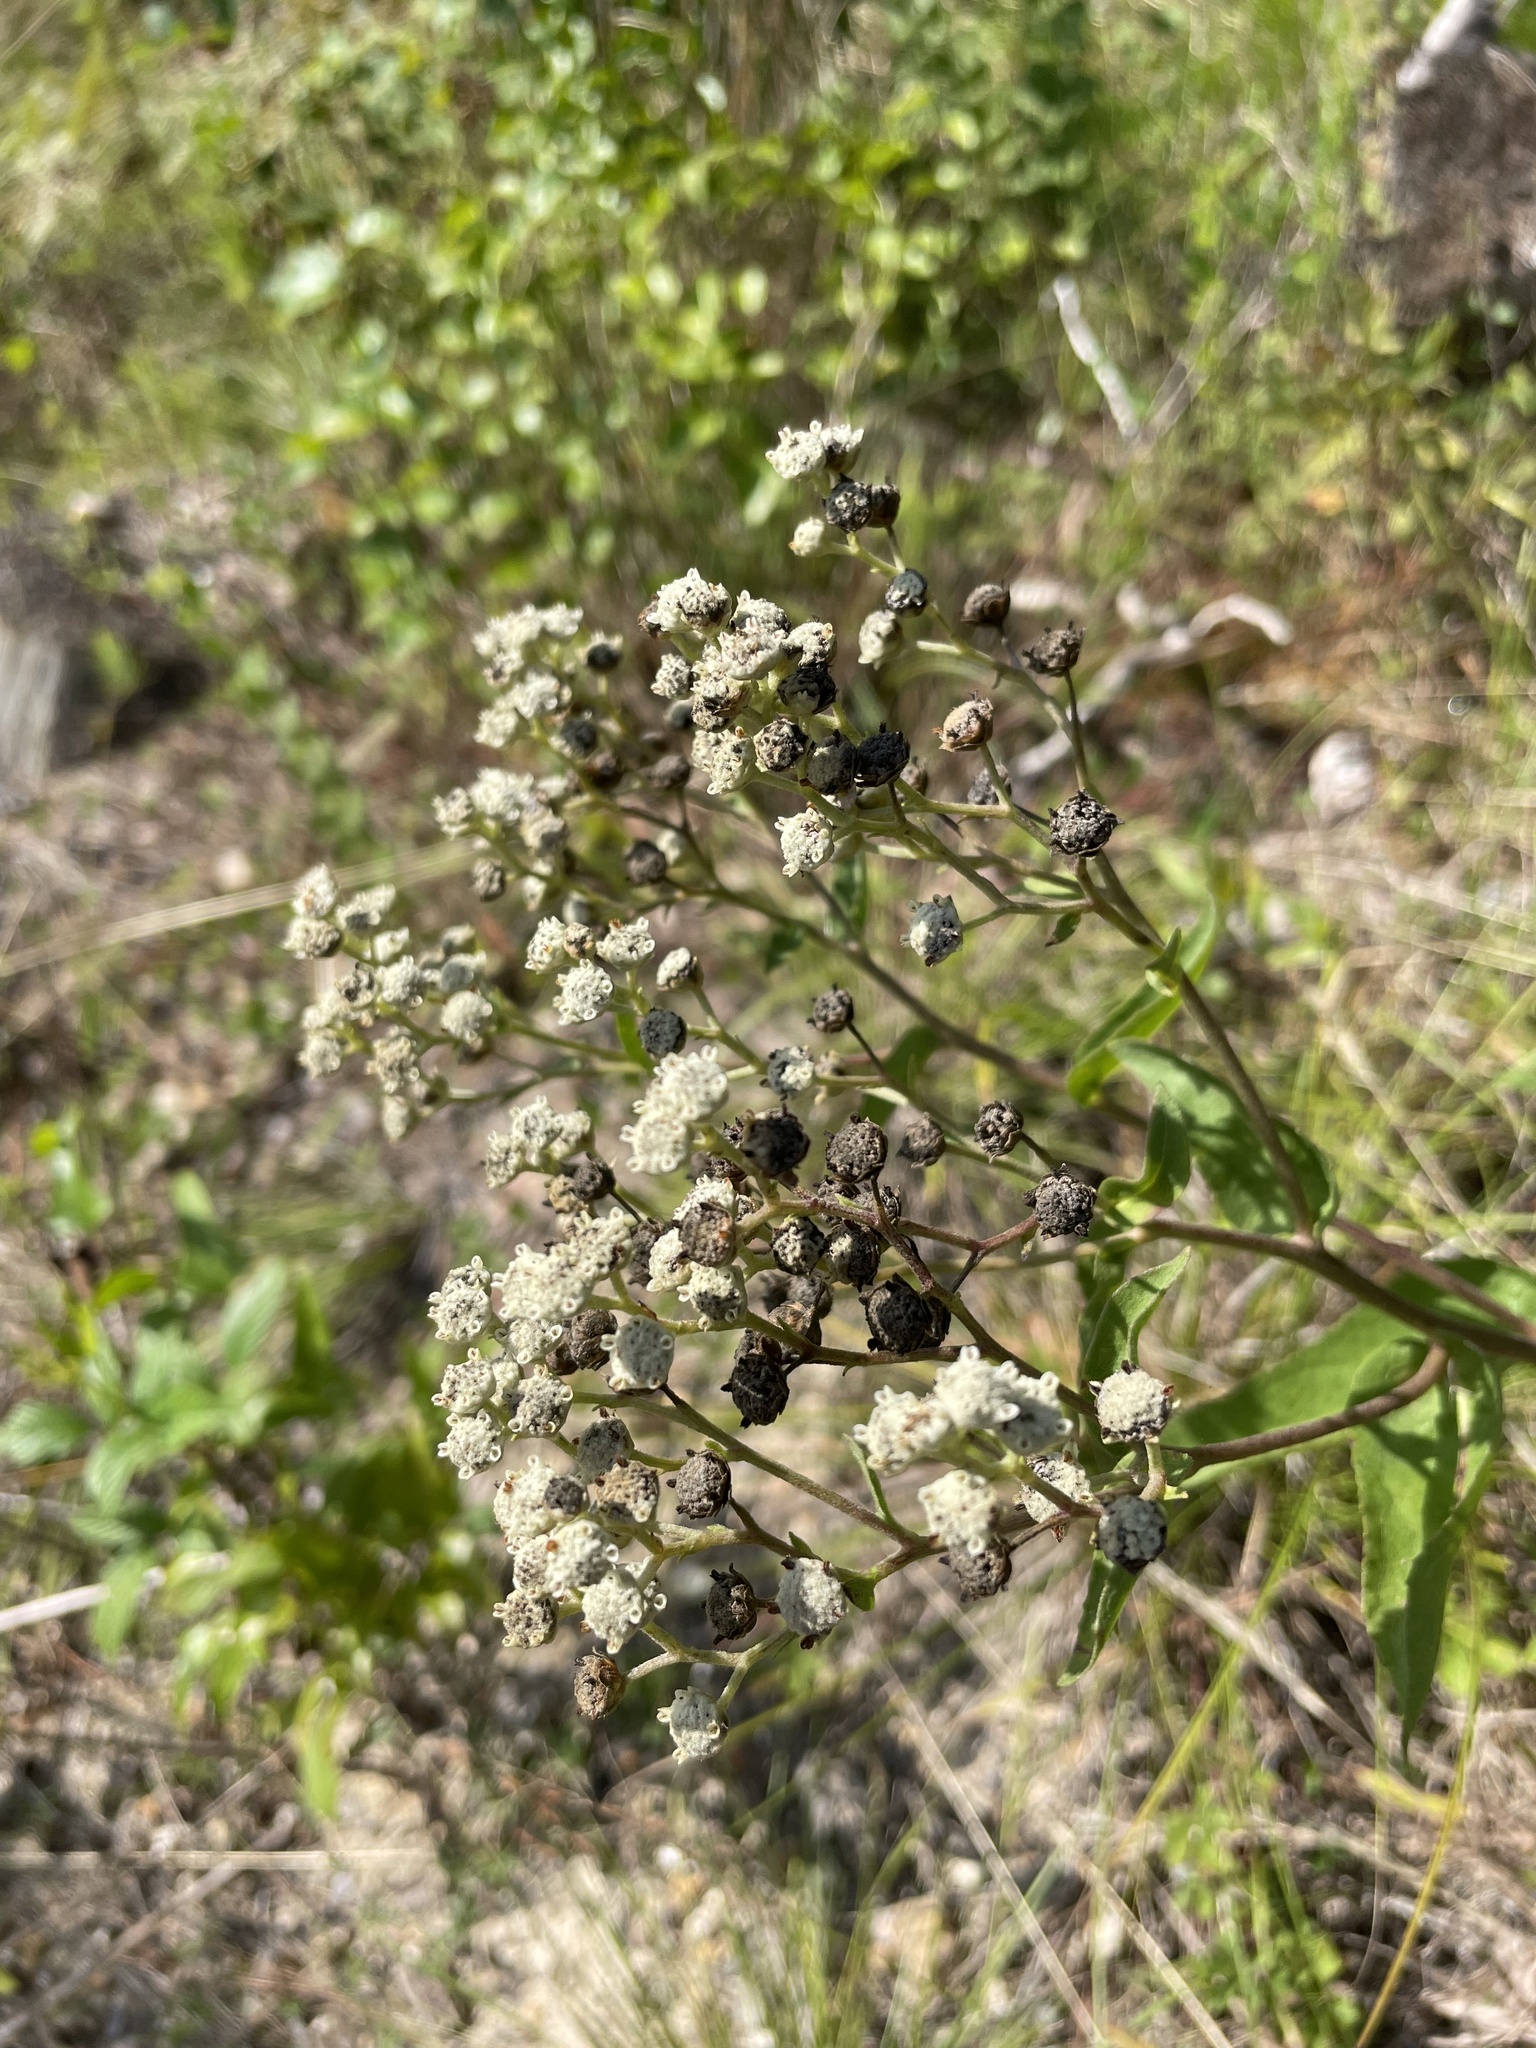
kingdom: Plantae
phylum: Tracheophyta
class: Magnoliopsida
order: Asterales
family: Asteraceae
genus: Parthenium
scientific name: Parthenium integrifolium
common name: American feverfew
